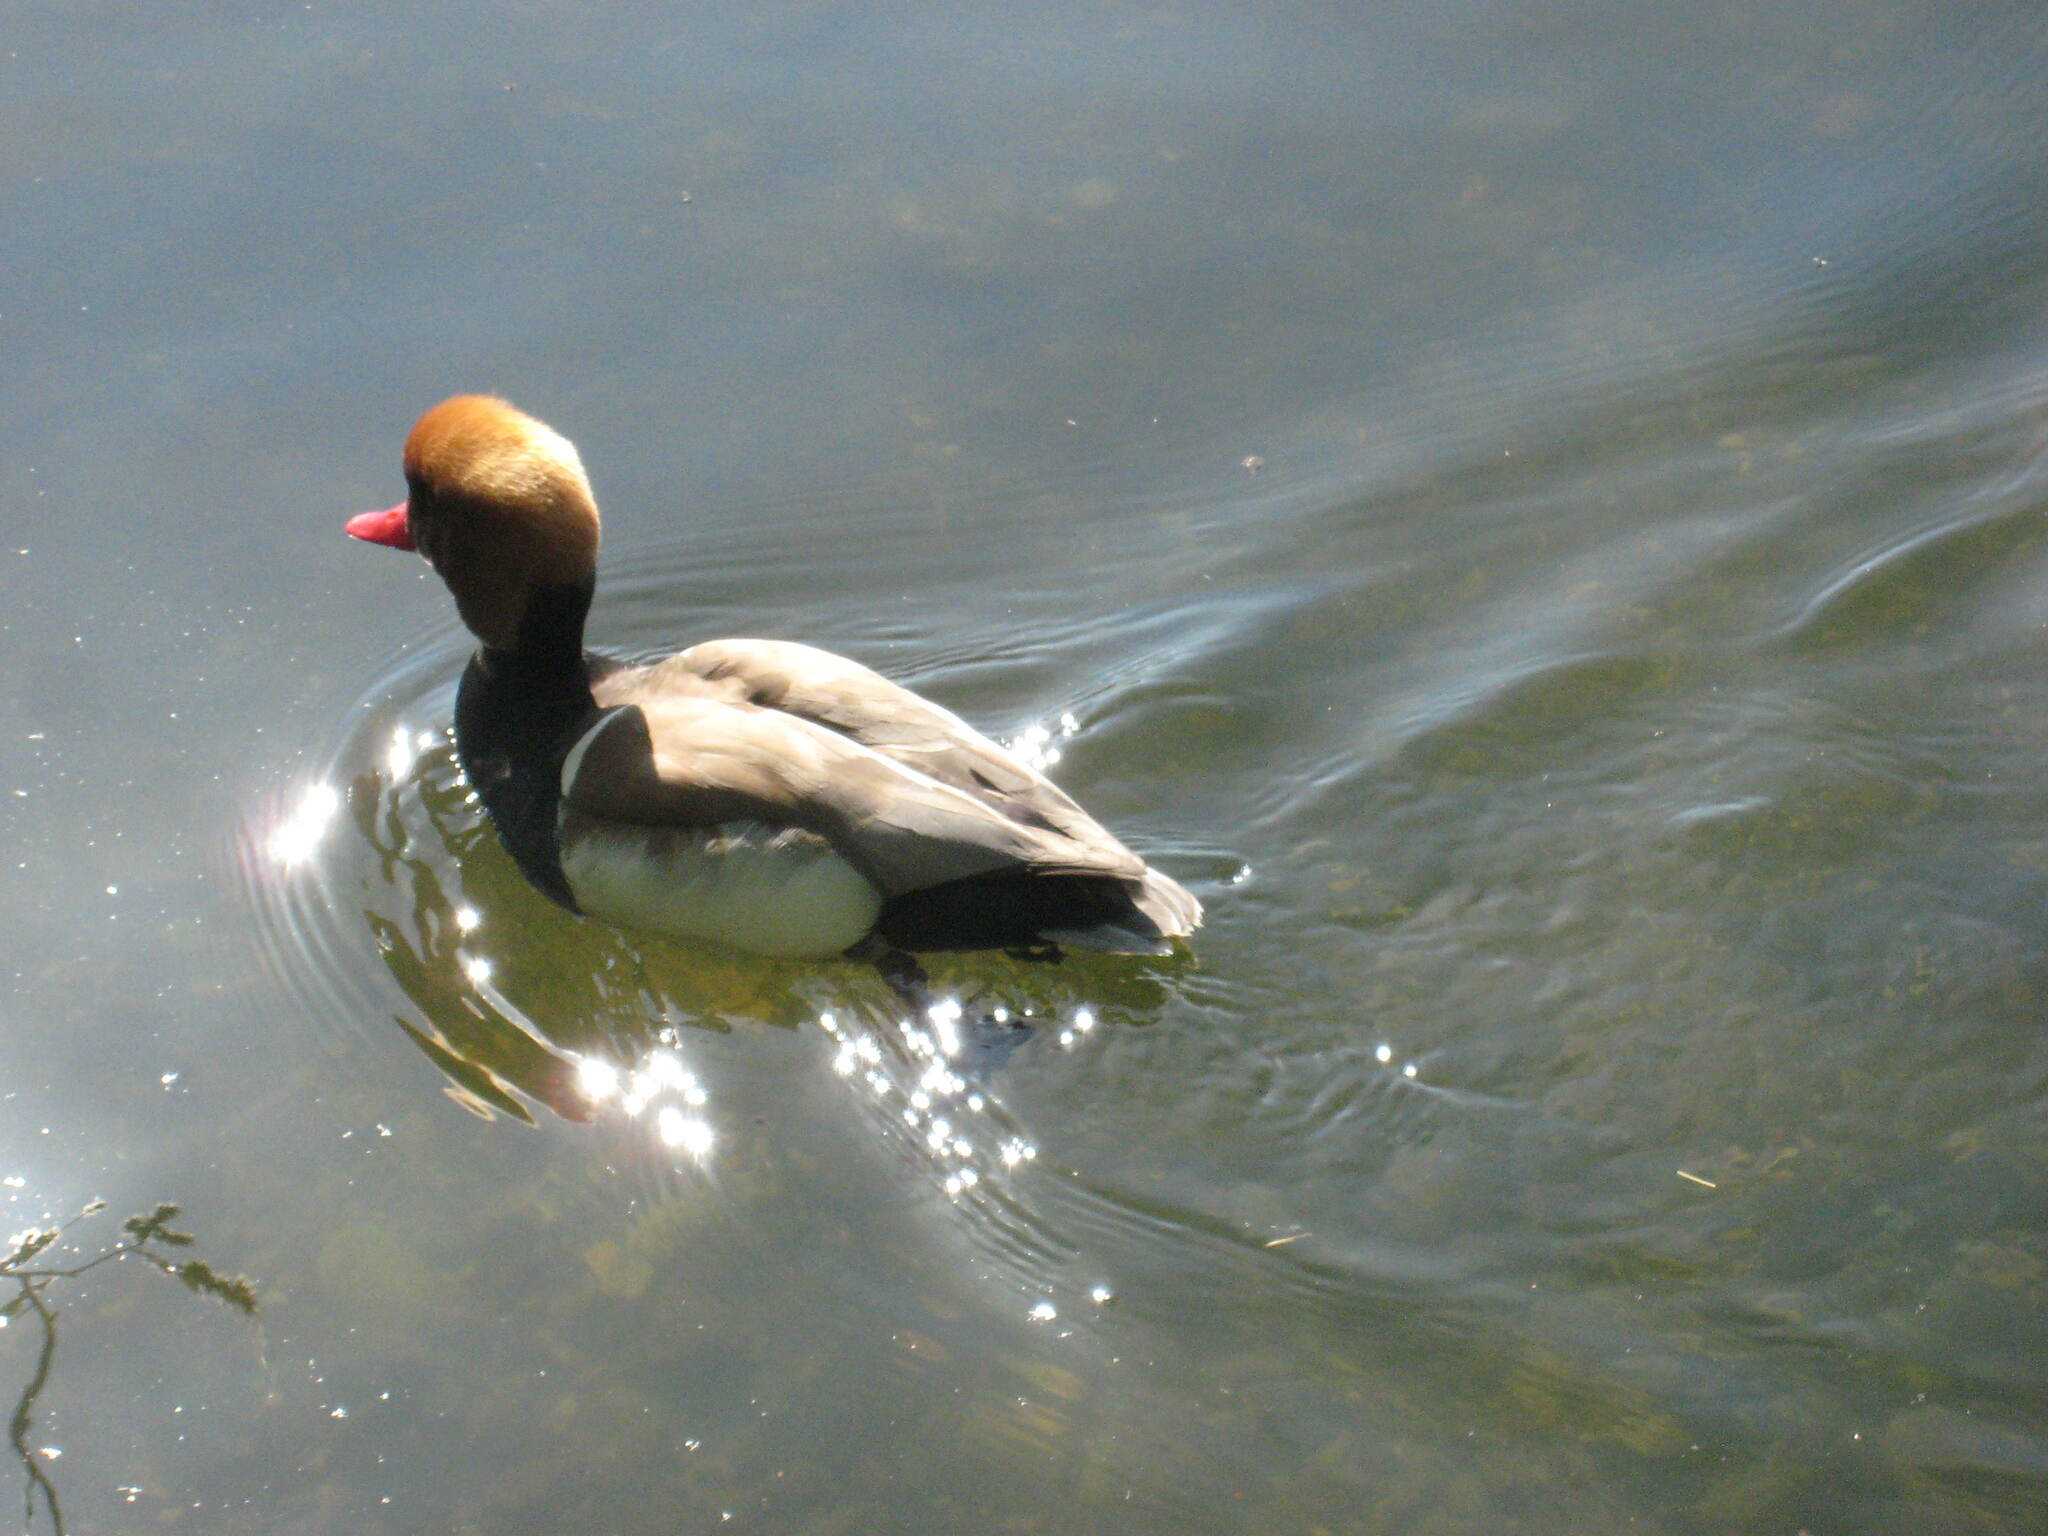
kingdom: Animalia
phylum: Chordata
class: Aves
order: Anseriformes
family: Anatidae
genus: Netta
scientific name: Netta rufina
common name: Red-crested pochard
